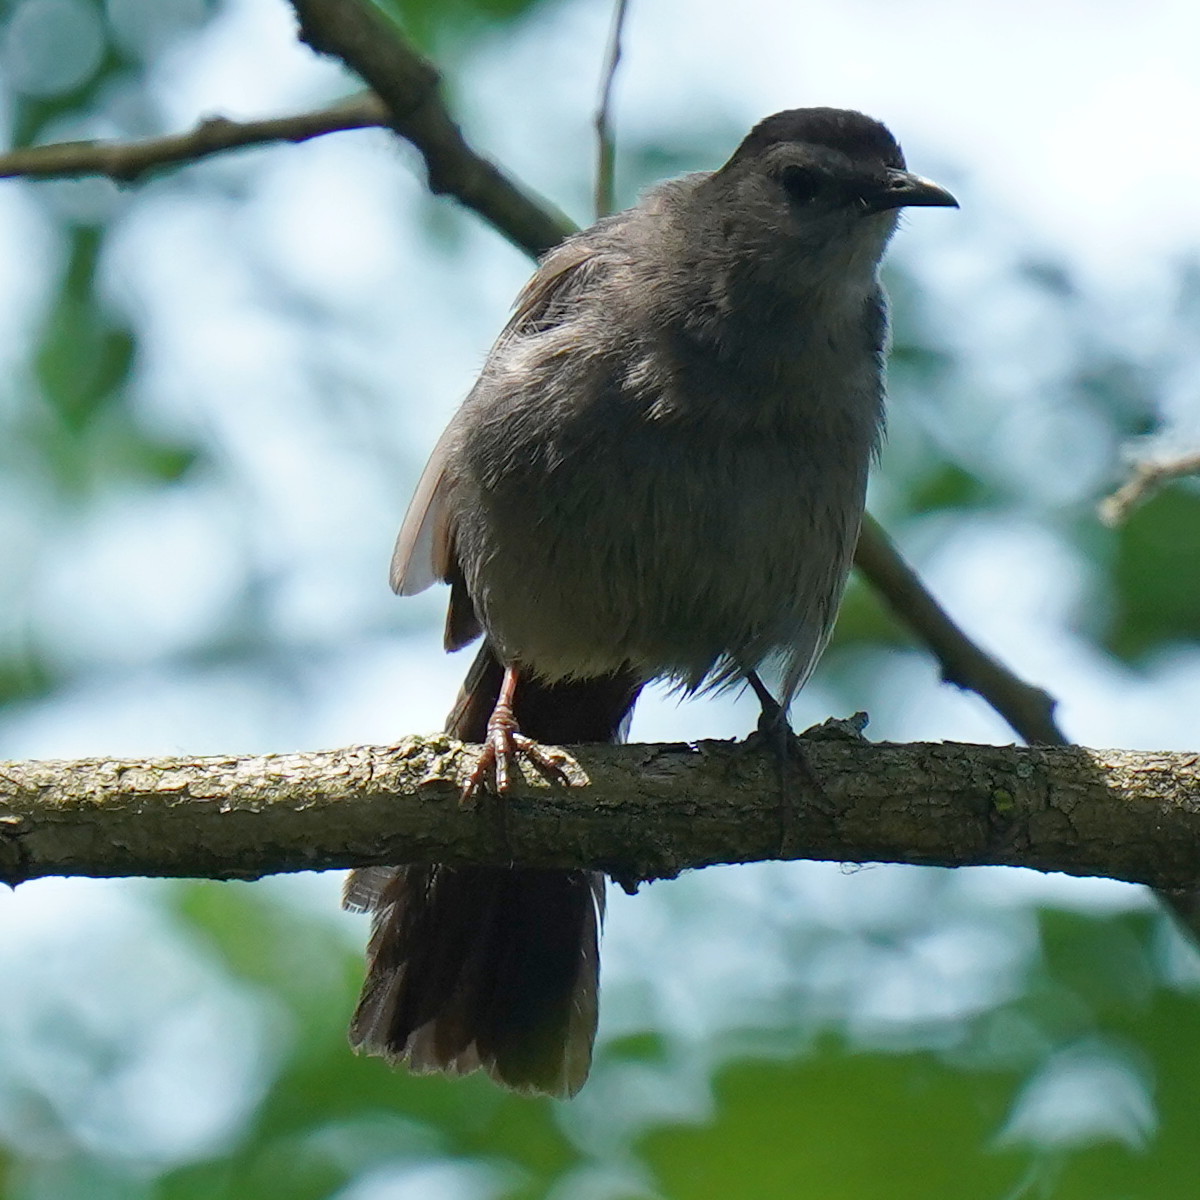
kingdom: Animalia
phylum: Chordata
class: Aves
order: Passeriformes
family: Mimidae
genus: Dumetella
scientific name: Dumetella carolinensis
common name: Gray catbird
